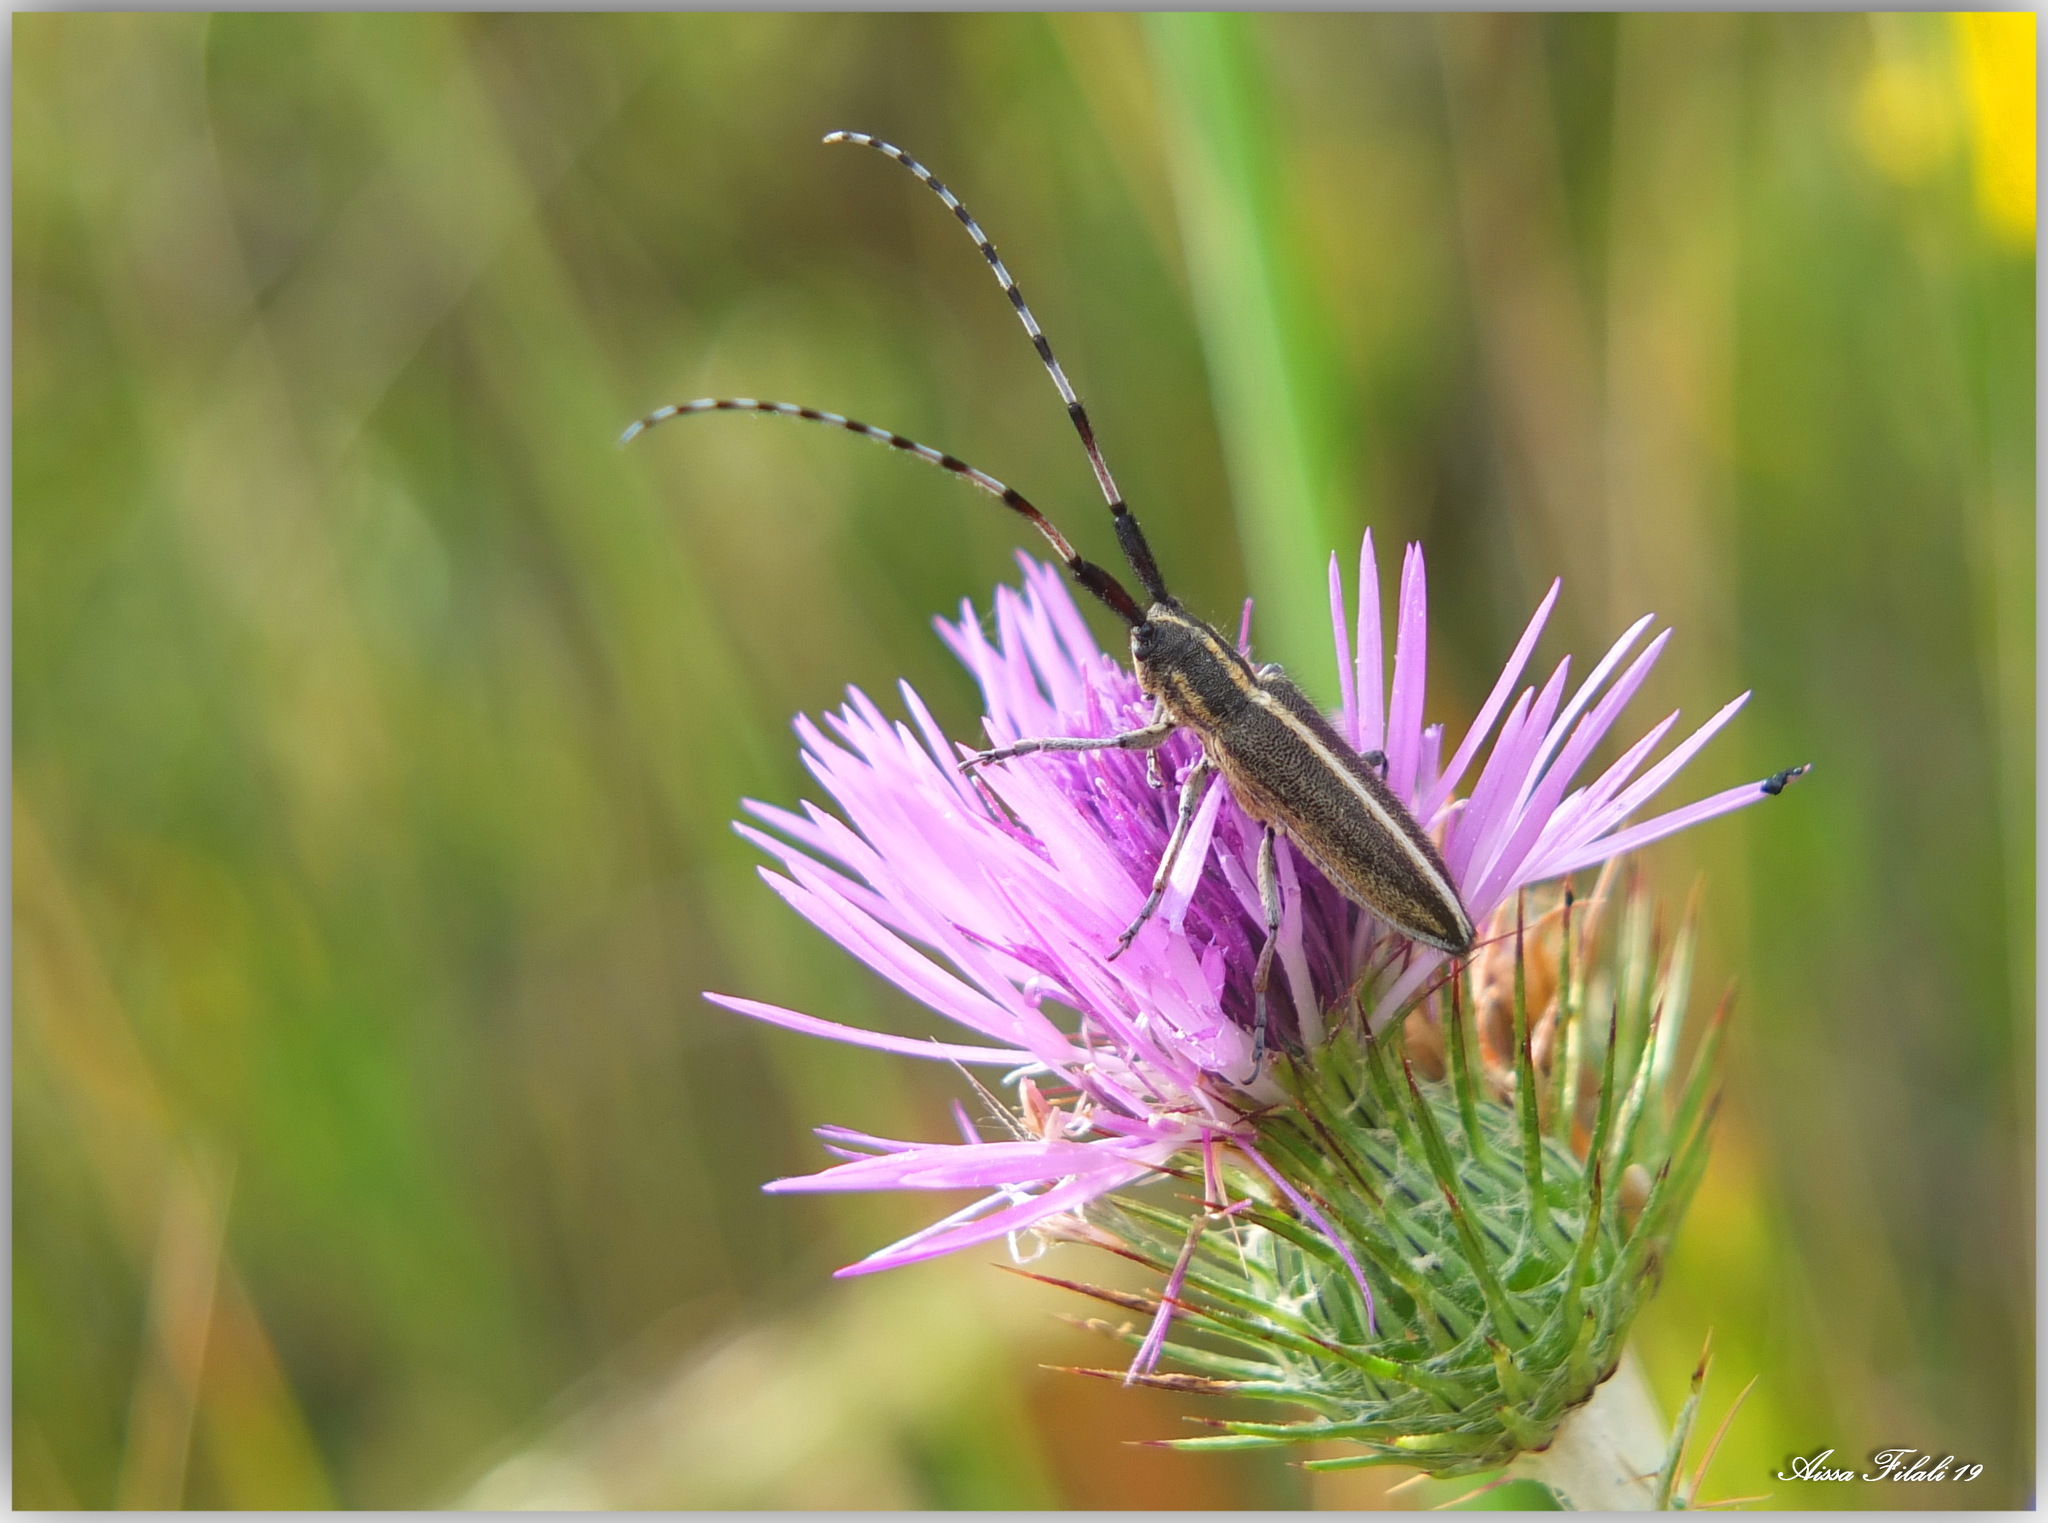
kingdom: Animalia
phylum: Arthropoda
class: Insecta
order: Coleoptera
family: Cerambycidae
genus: Agapanthia
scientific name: Agapanthia suturalis
